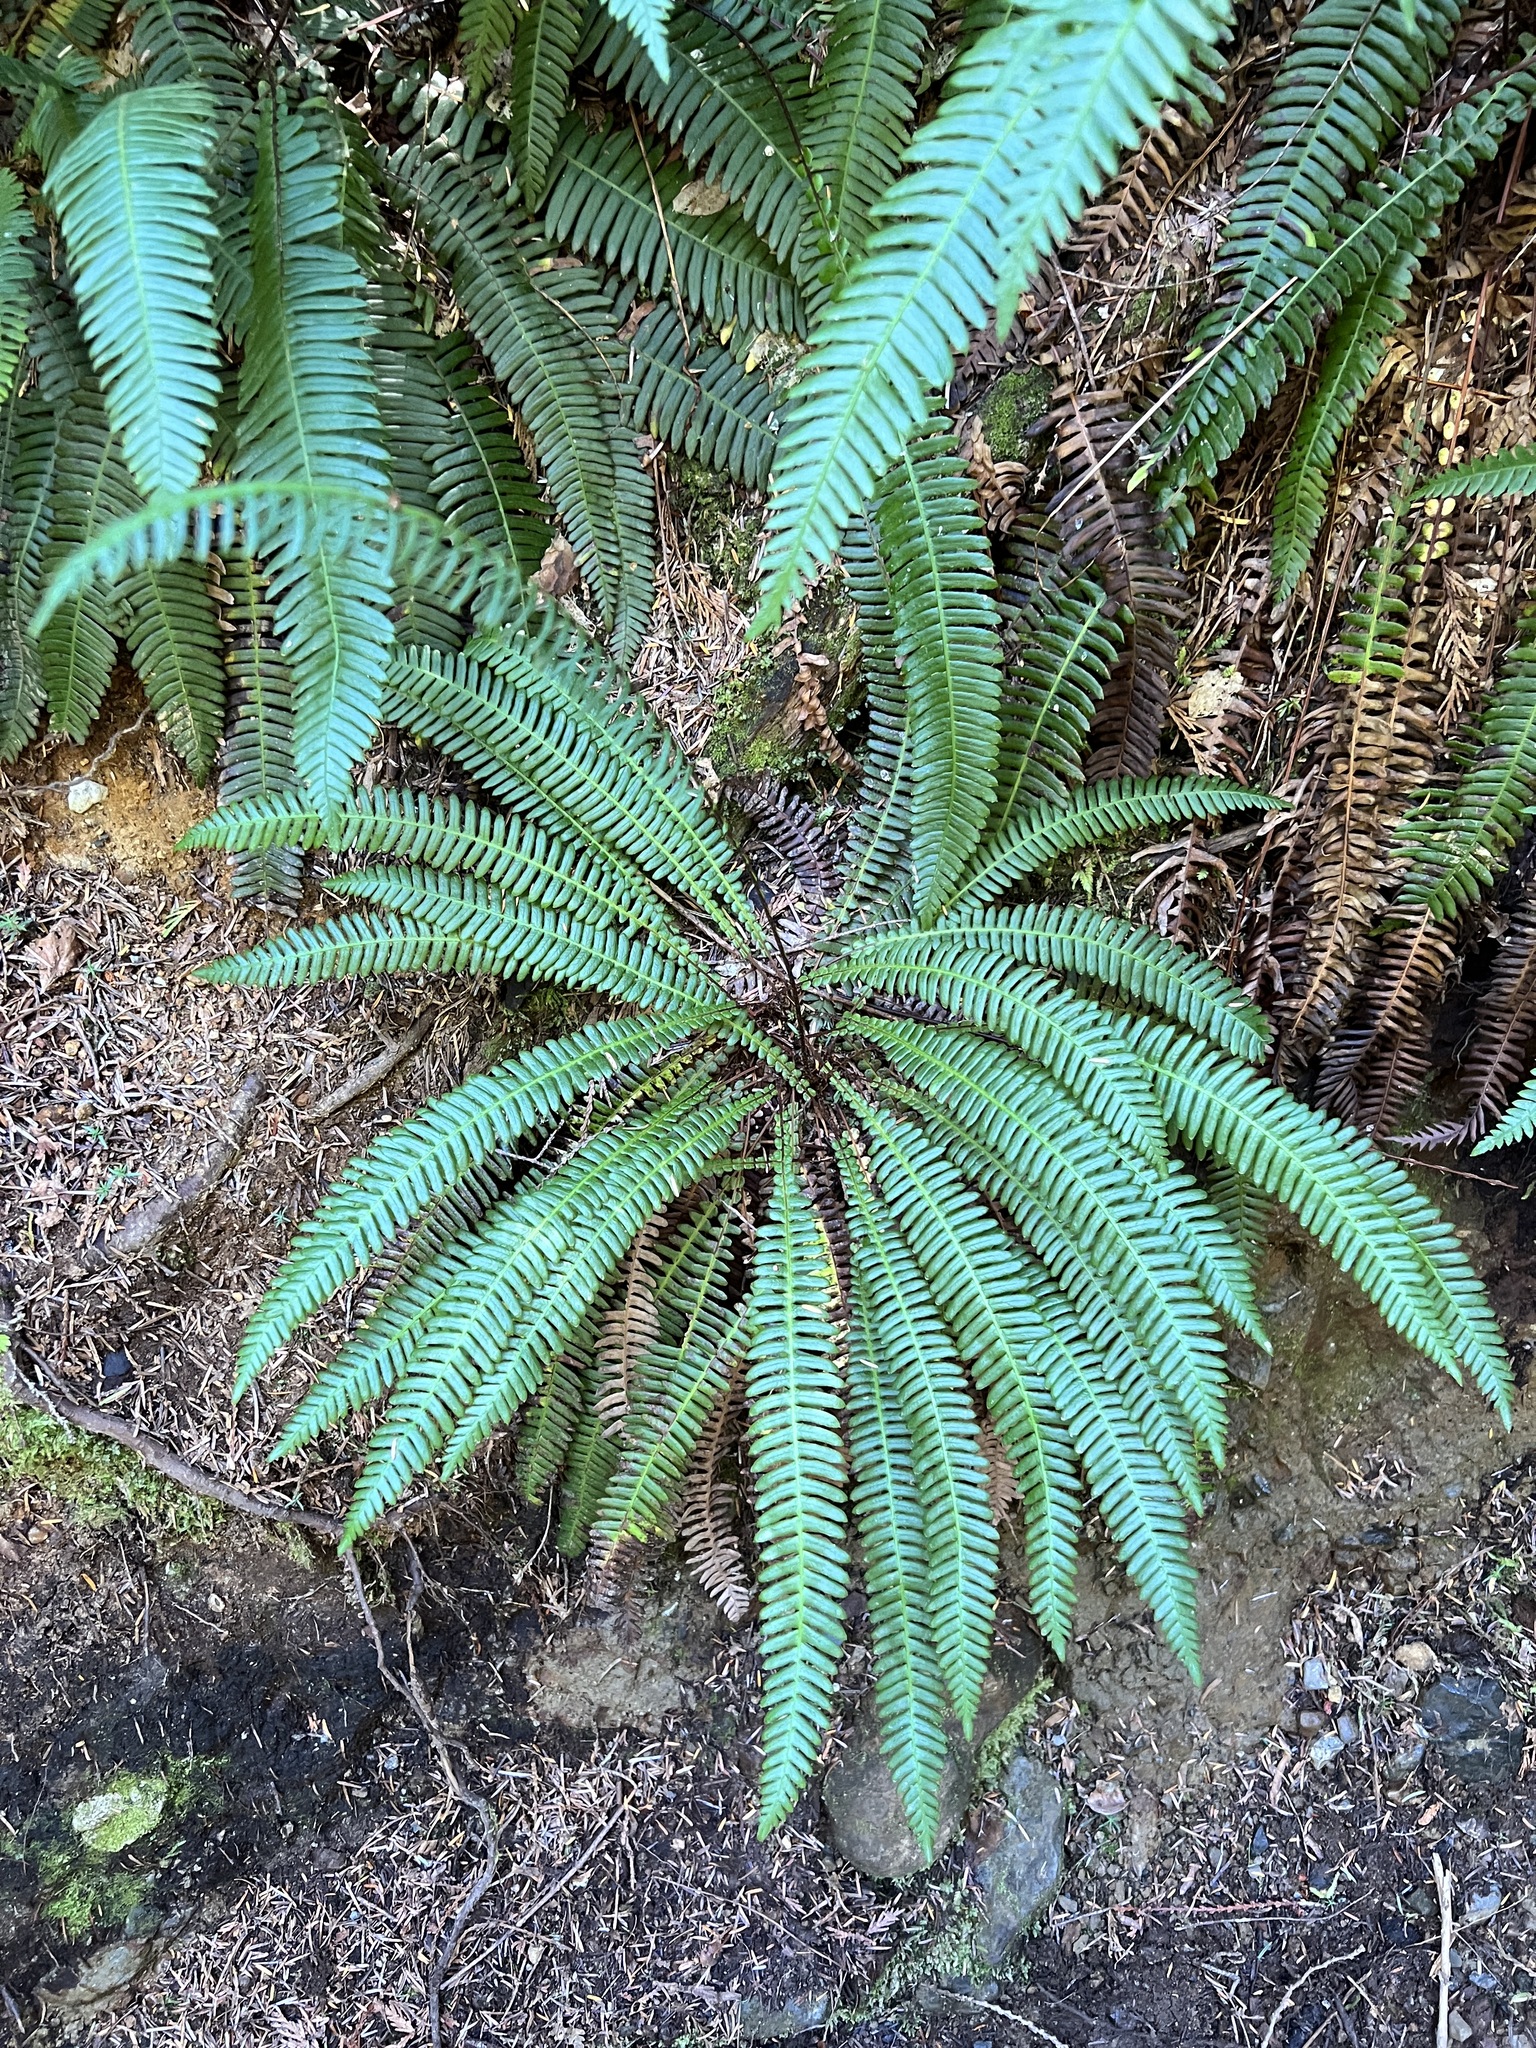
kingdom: Plantae
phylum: Tracheophyta
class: Polypodiopsida
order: Polypodiales
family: Blechnaceae
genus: Struthiopteris
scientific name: Struthiopteris spicant
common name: Deer fern
